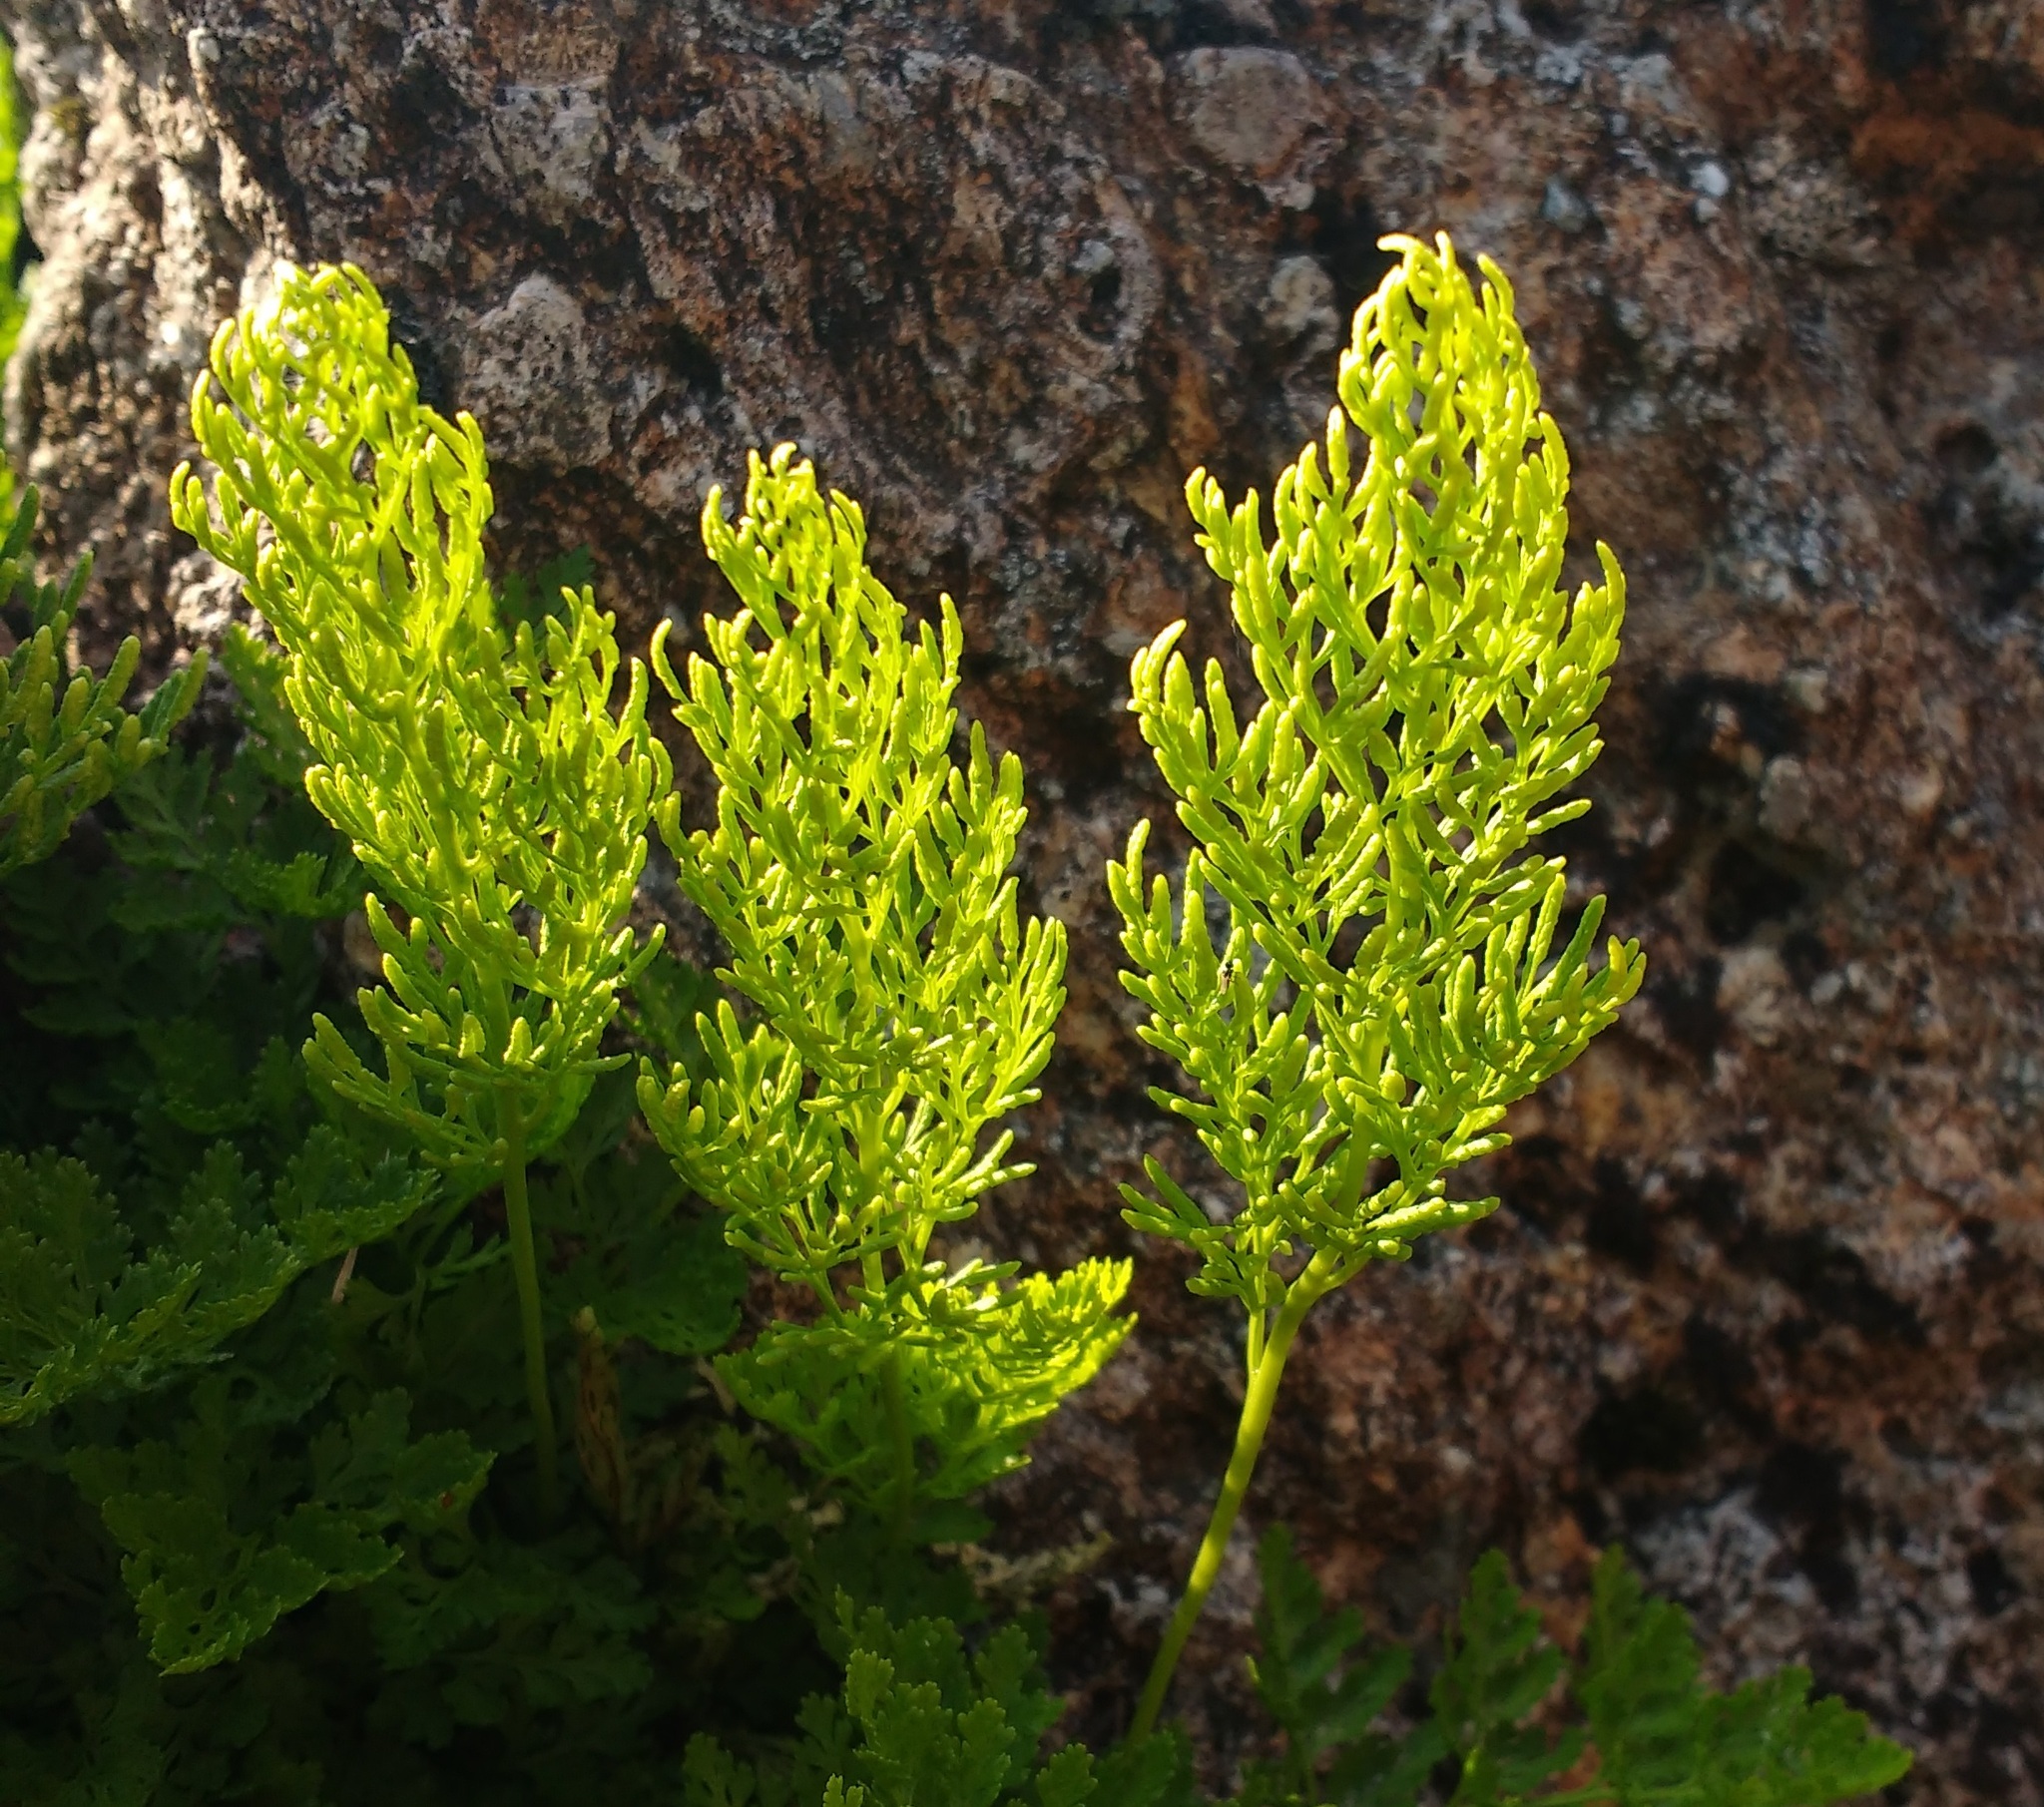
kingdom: Plantae
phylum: Tracheophyta
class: Polypodiopsida
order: Polypodiales
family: Pteridaceae
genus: Cryptogramma
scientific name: Cryptogramma crispa
